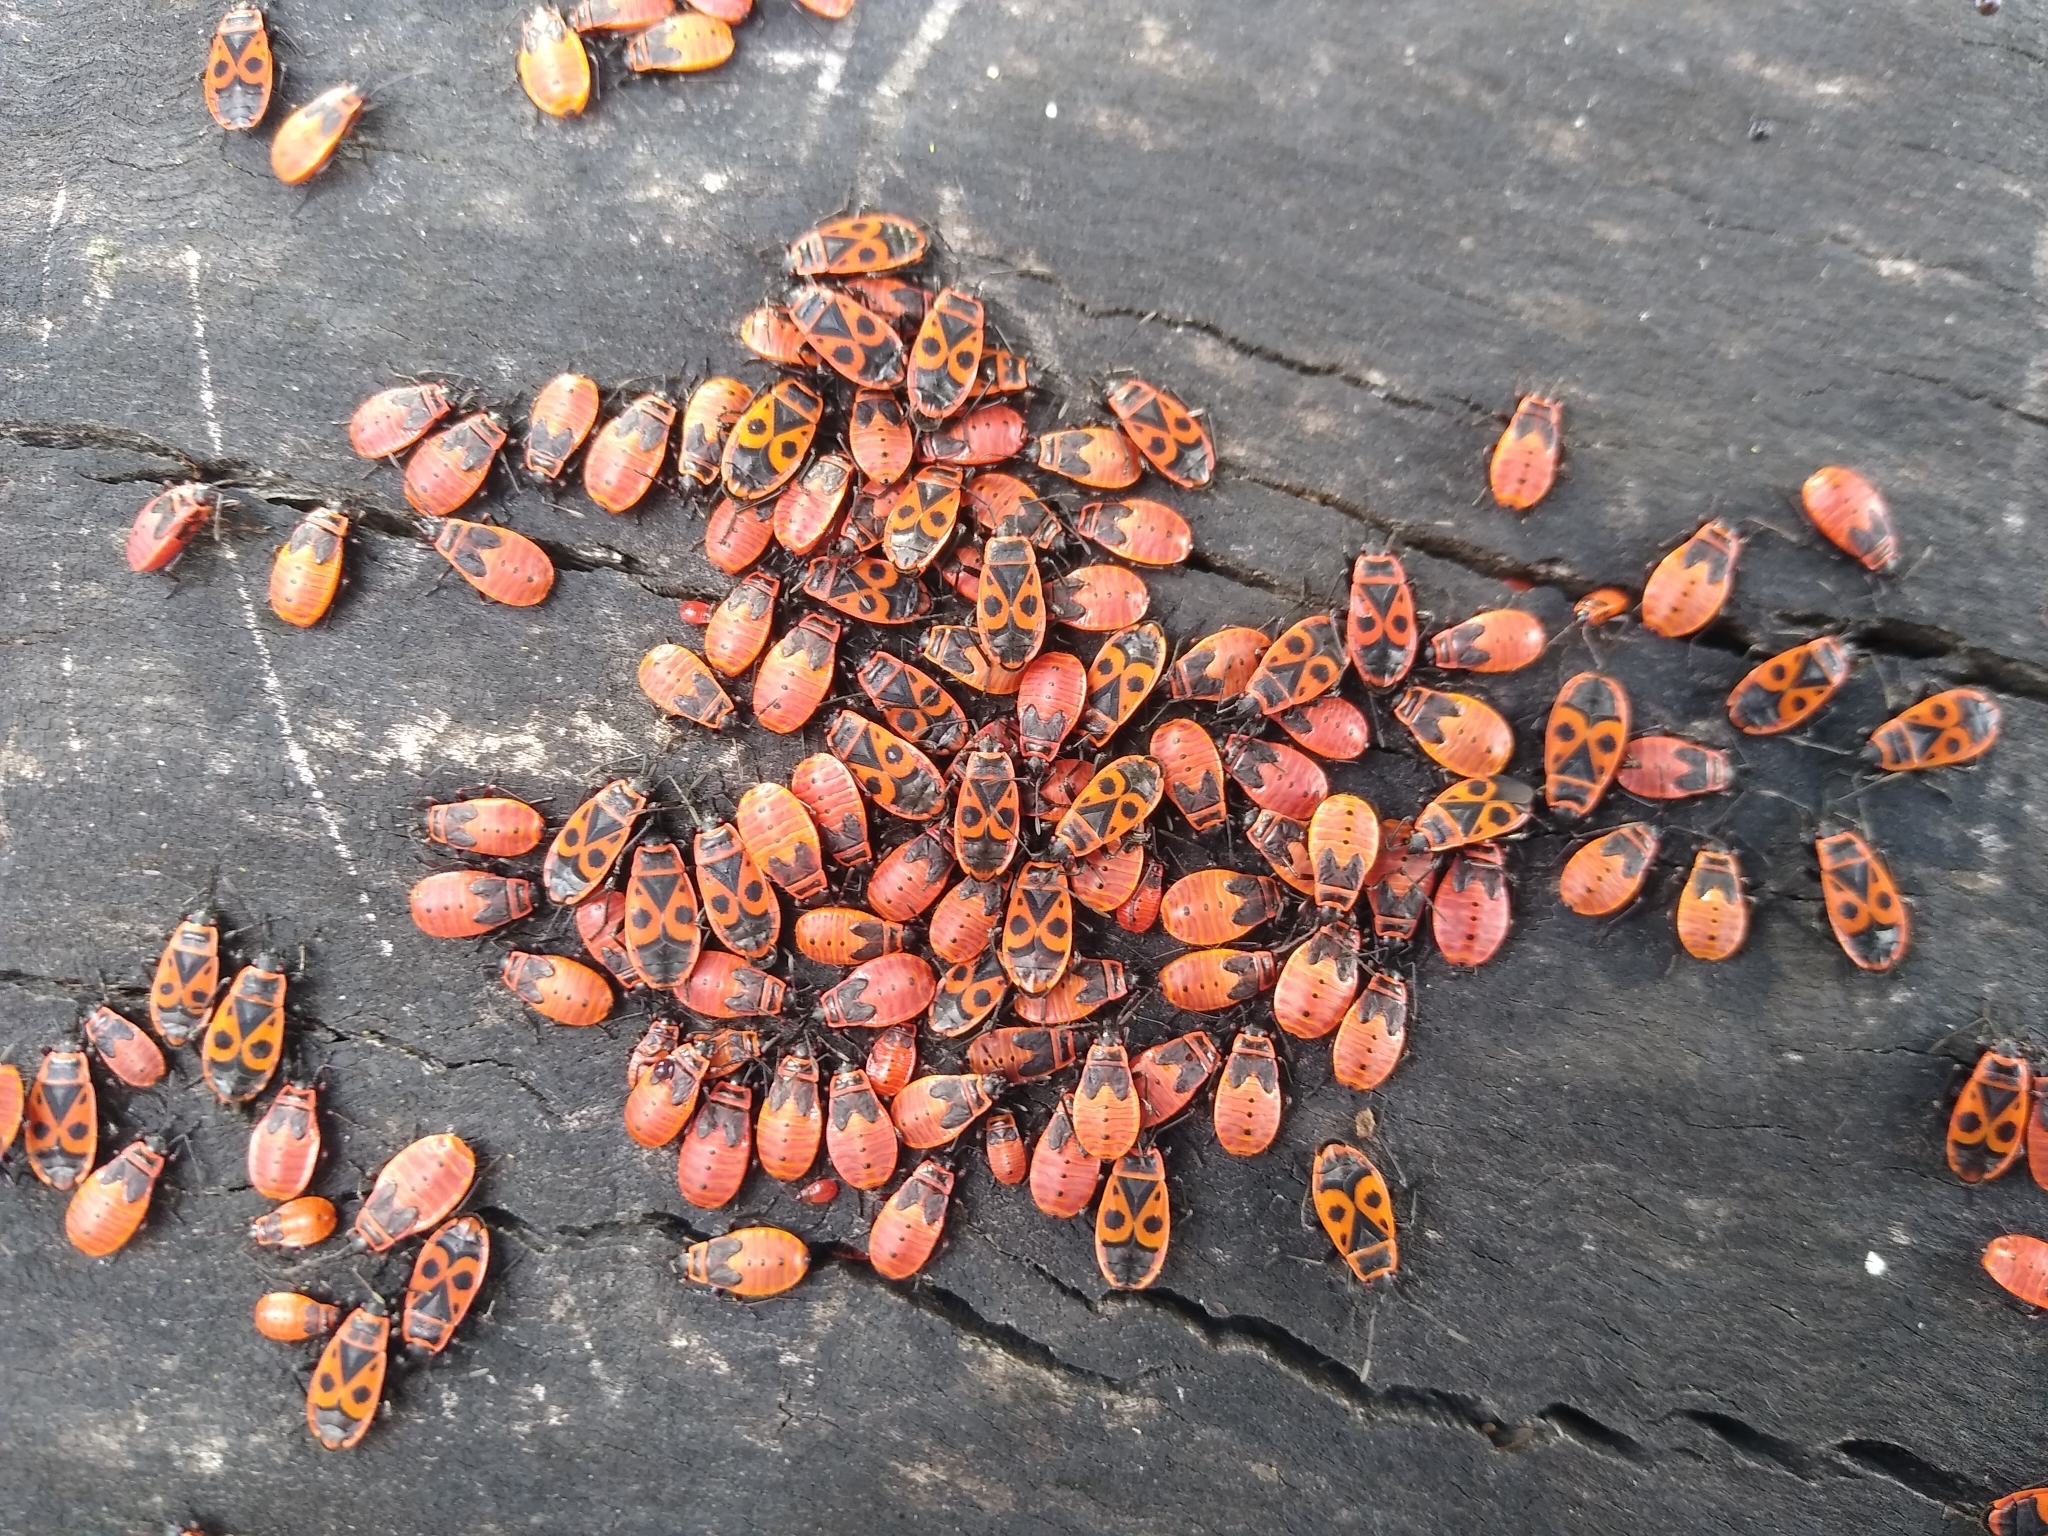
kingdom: Animalia
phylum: Arthropoda
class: Insecta
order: Hemiptera
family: Pyrrhocoridae
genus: Pyrrhocoris
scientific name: Pyrrhocoris apterus
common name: Firebug
